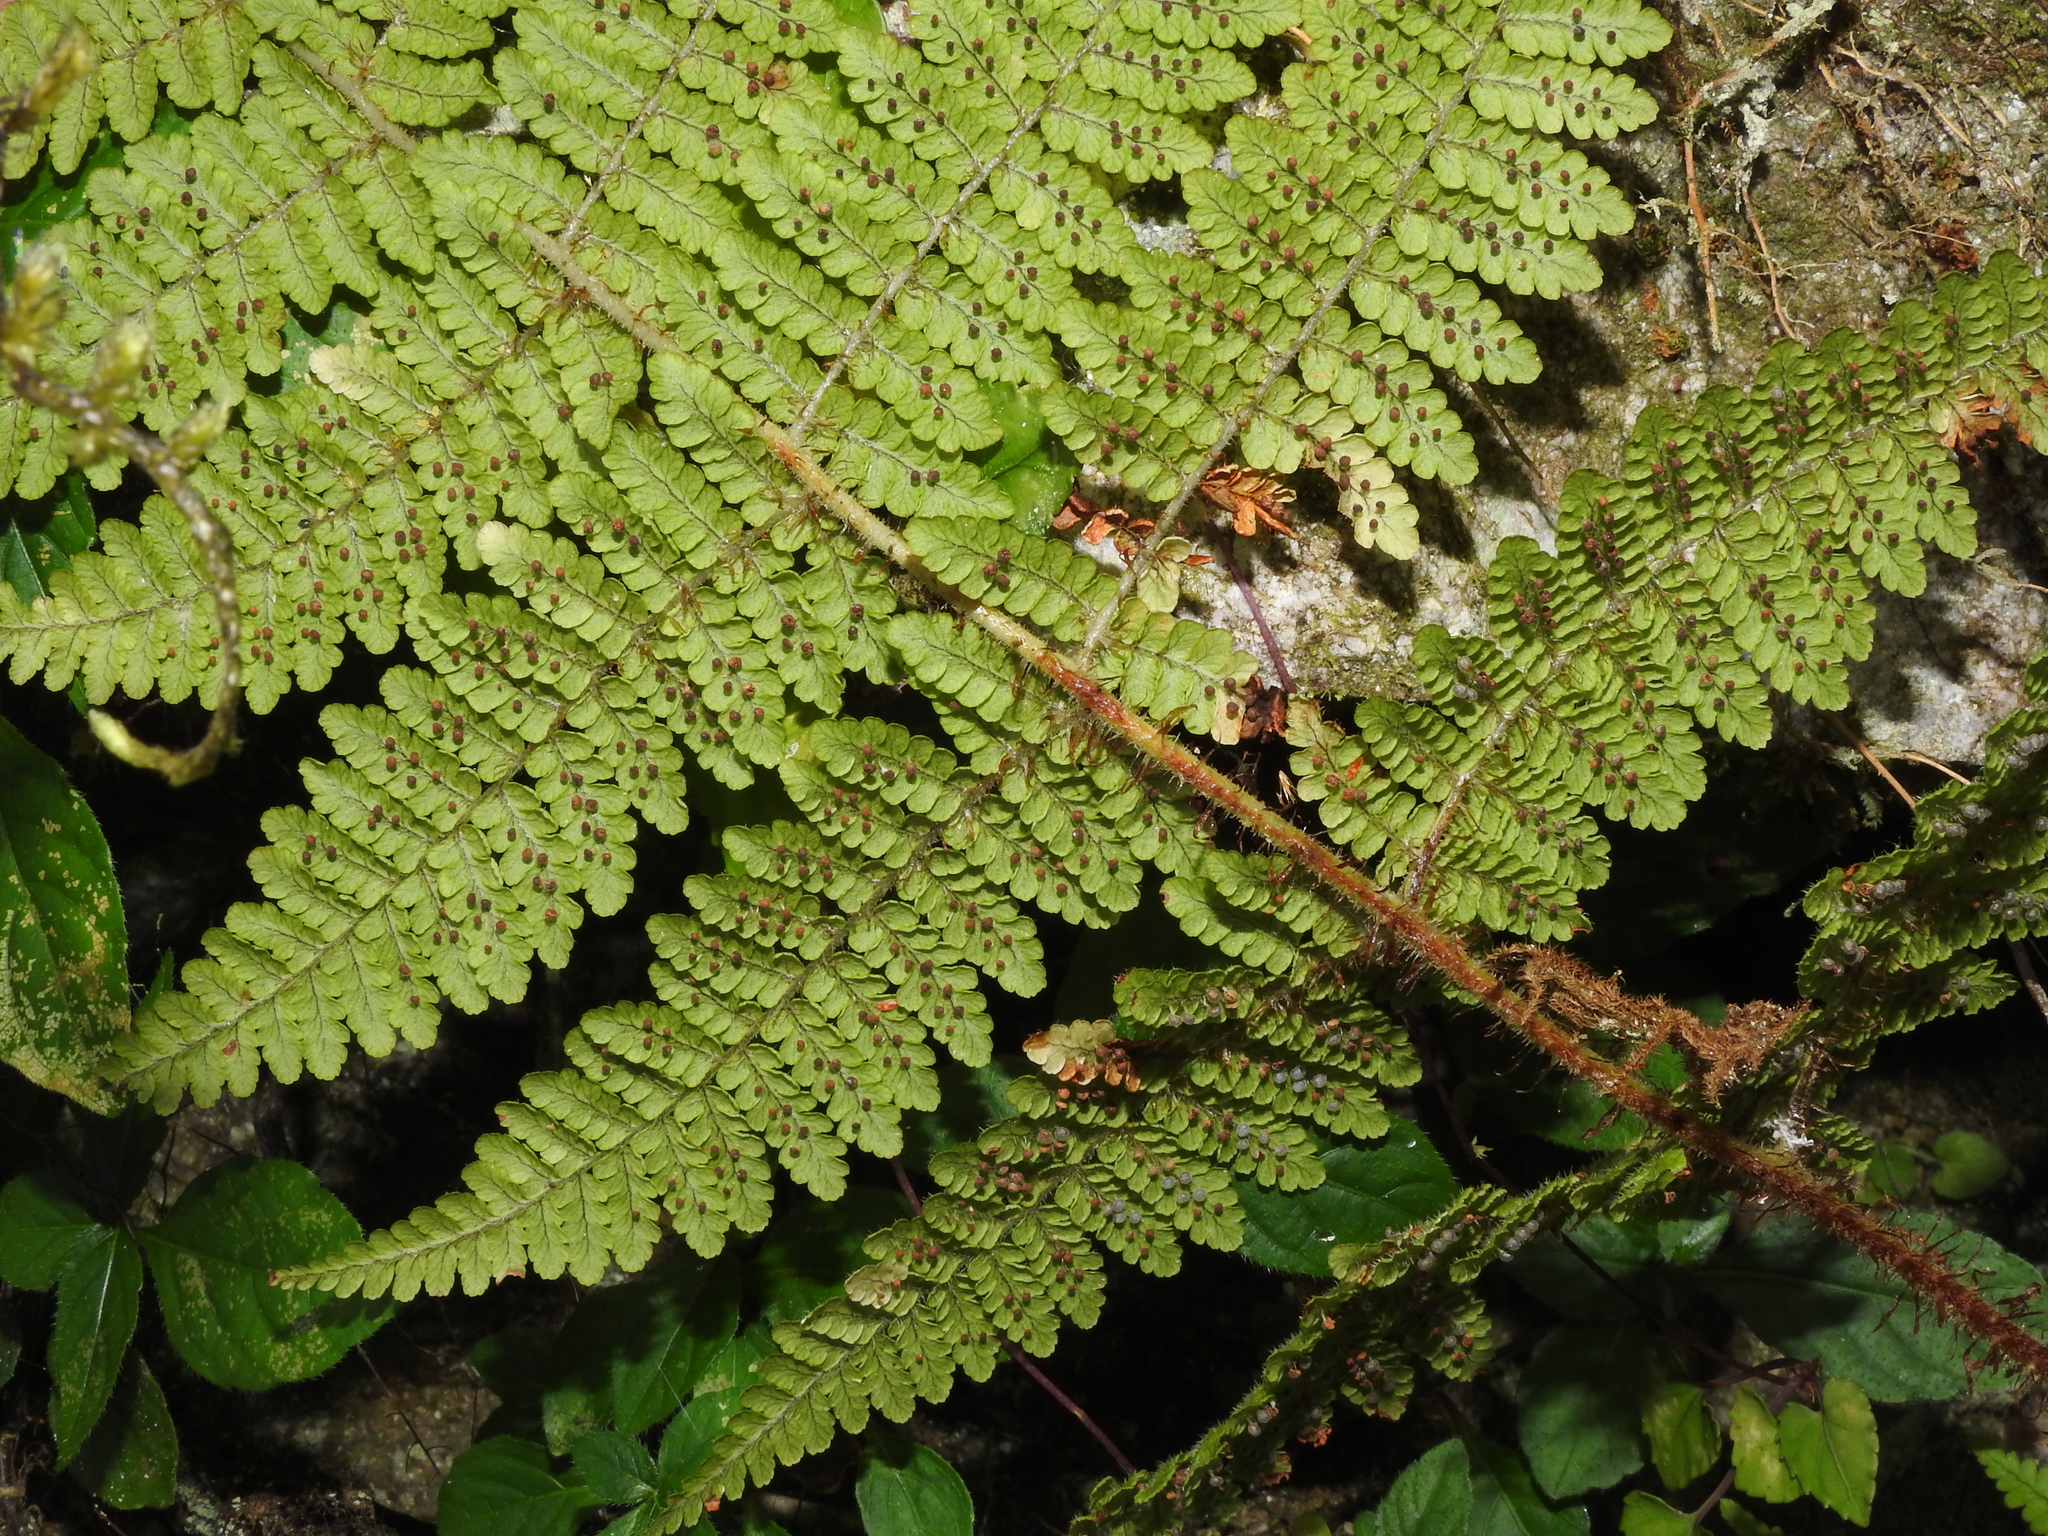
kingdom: Plantae
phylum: Tracheophyta
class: Polypodiopsida
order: Polypodiales
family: Dryopteridaceae
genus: Dryopteris
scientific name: Dryopteris peranema
